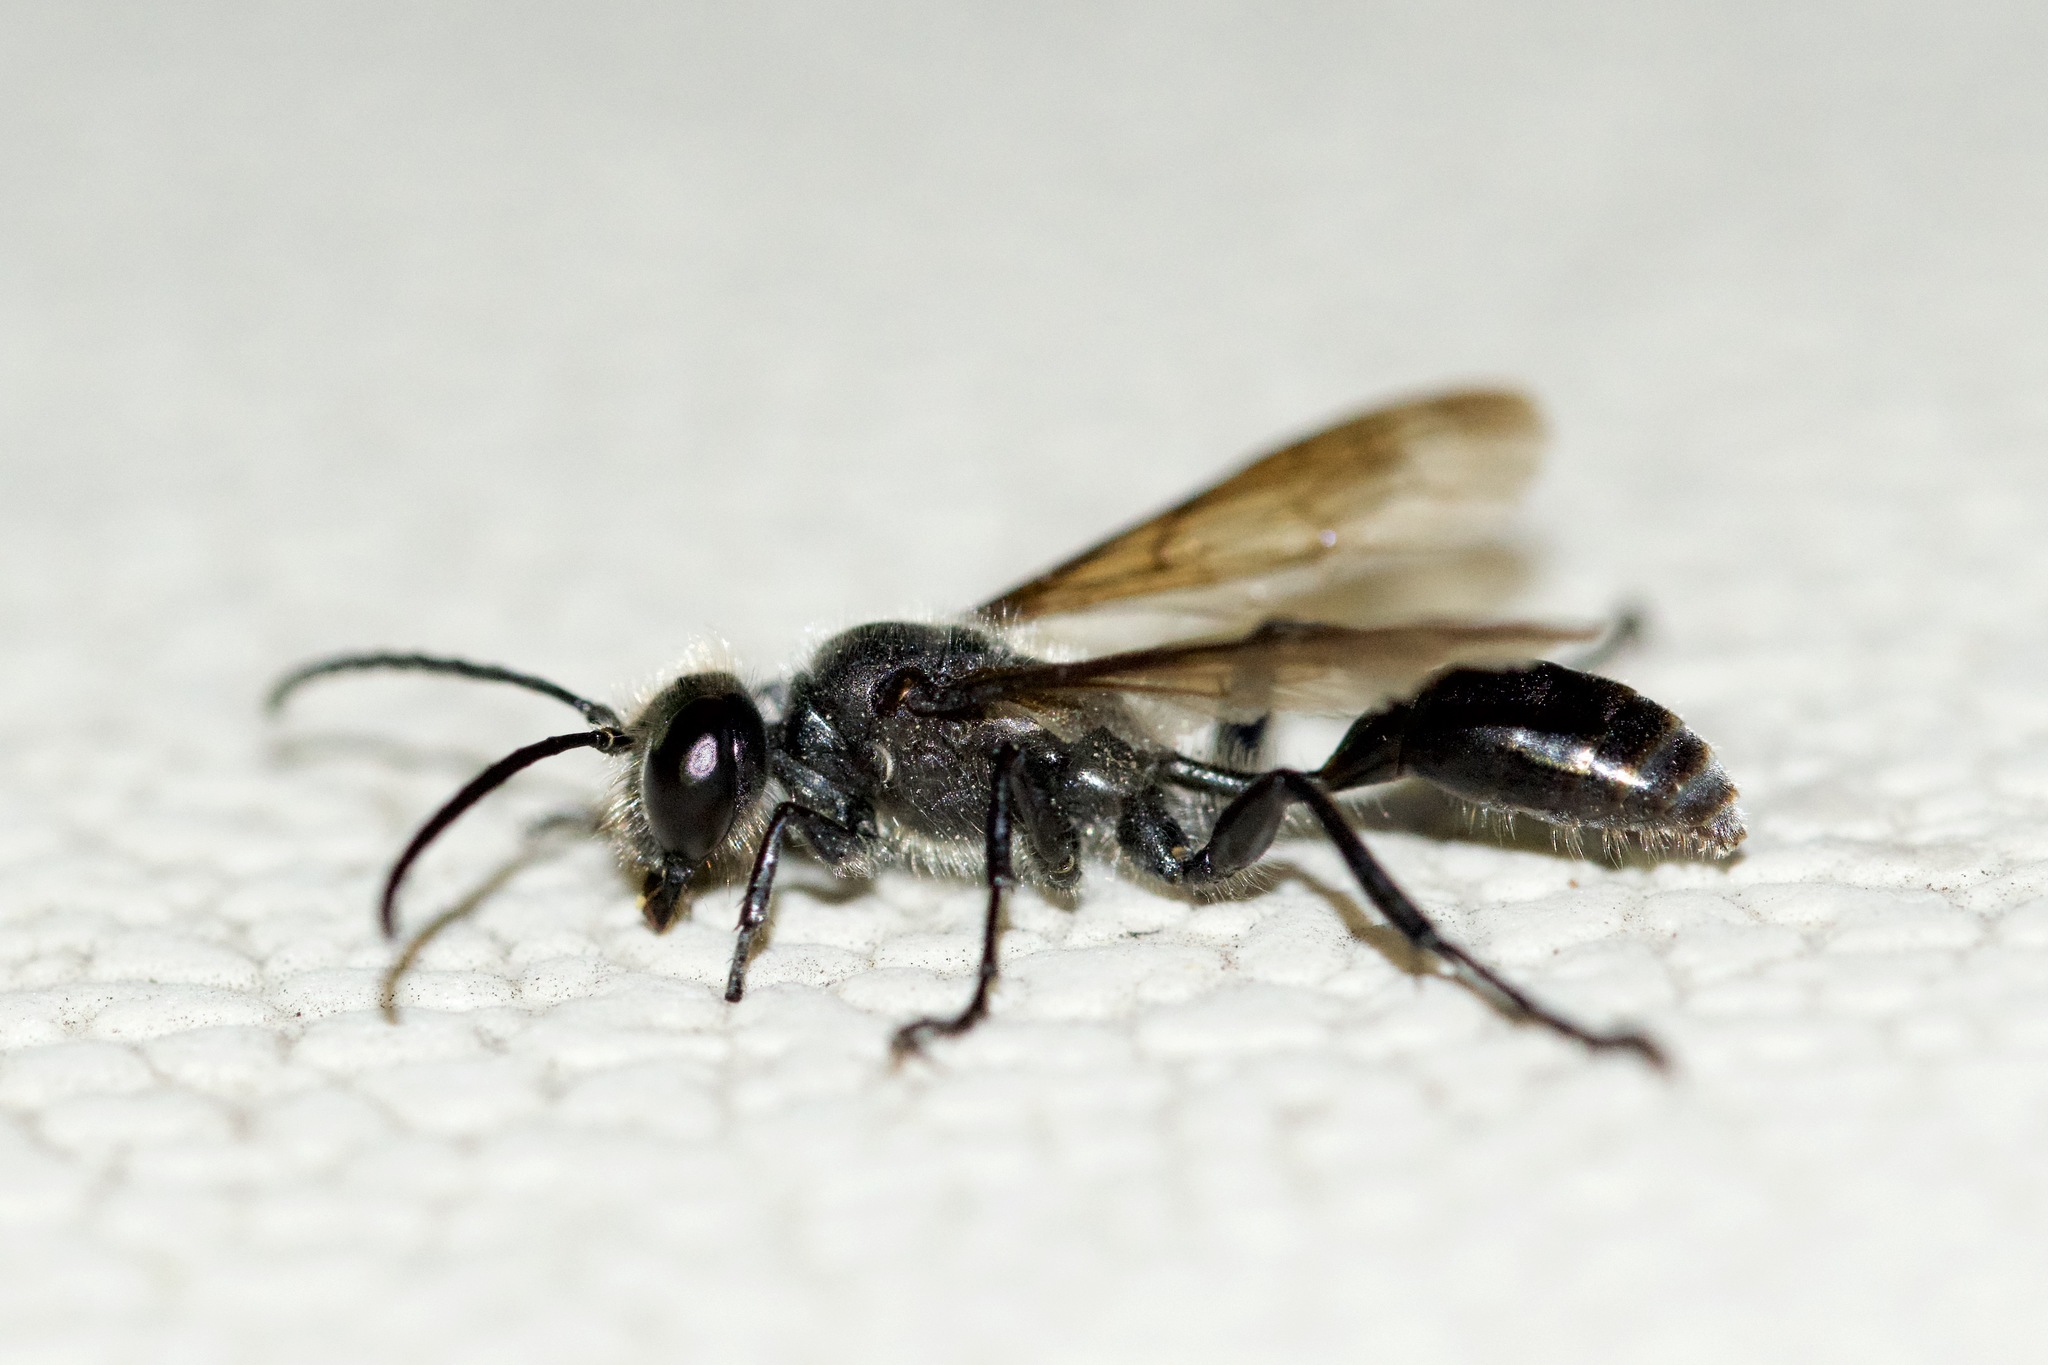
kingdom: Animalia
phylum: Arthropoda
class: Insecta
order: Hymenoptera
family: Sphecidae
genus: Isodontia
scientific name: Isodontia mexicana
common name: Mud dauber
